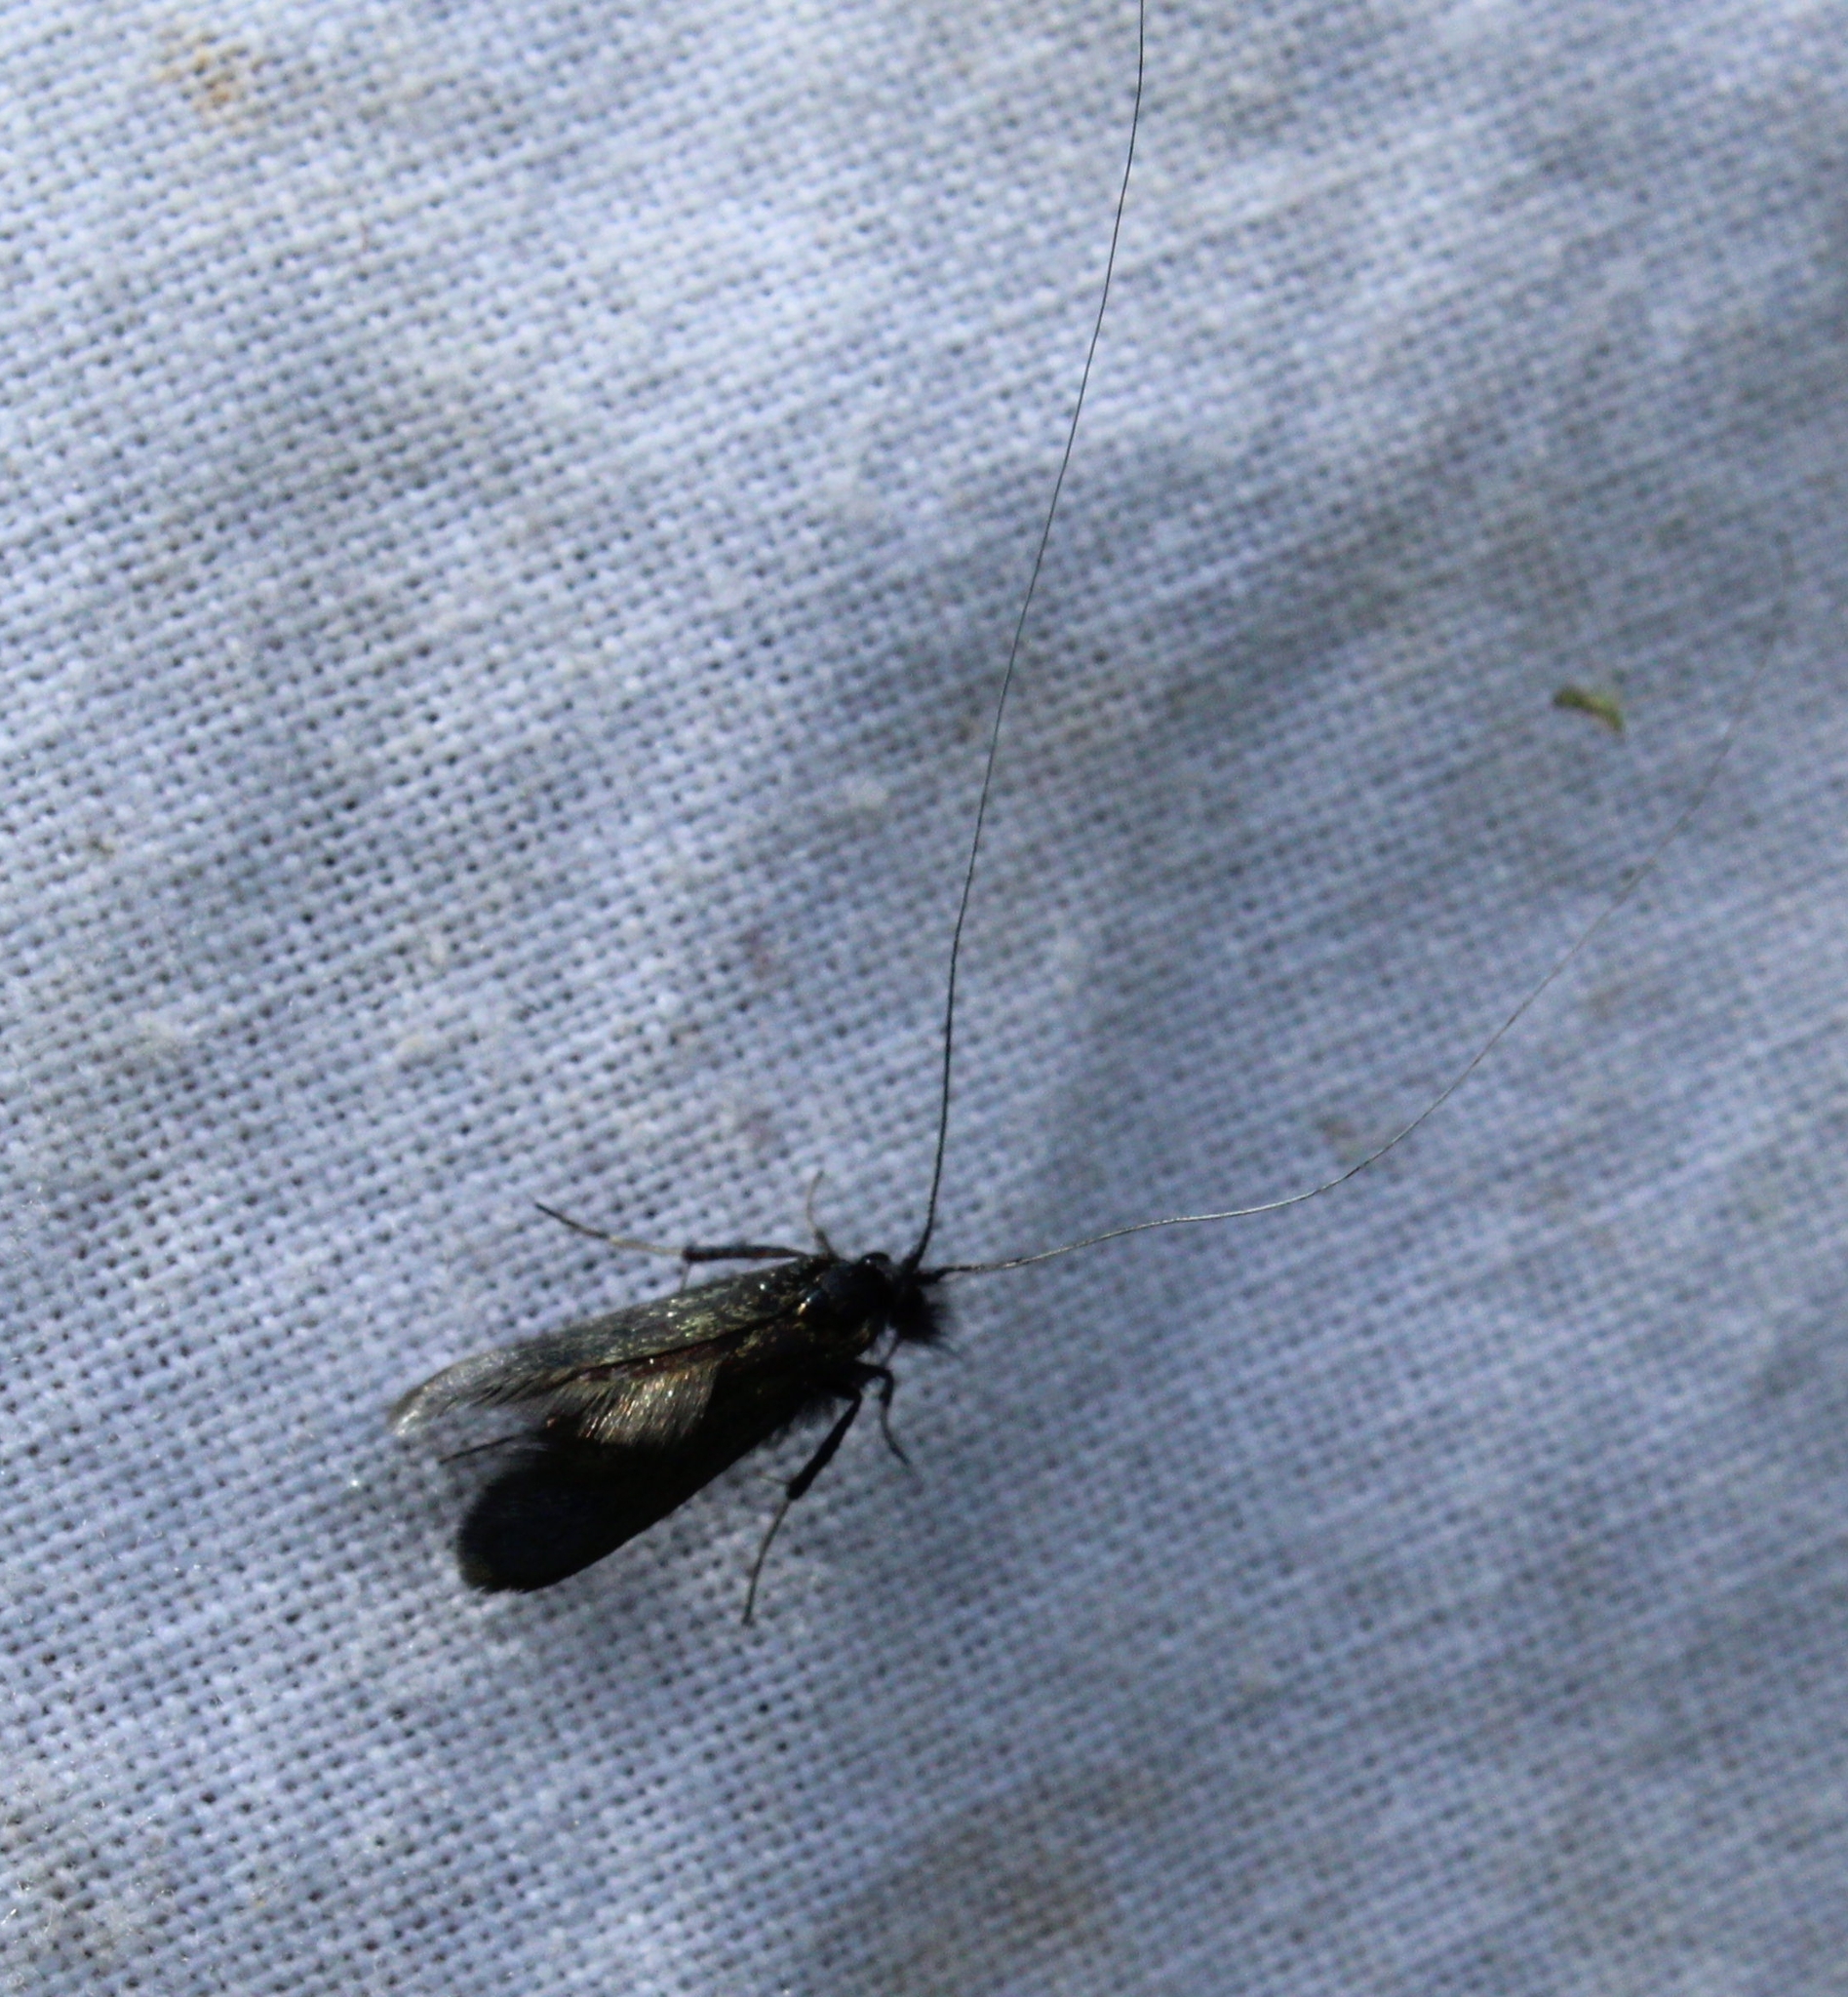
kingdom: Animalia
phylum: Arthropoda
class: Insecta
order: Lepidoptera
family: Adelidae
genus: Adela
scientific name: Adela viridella
